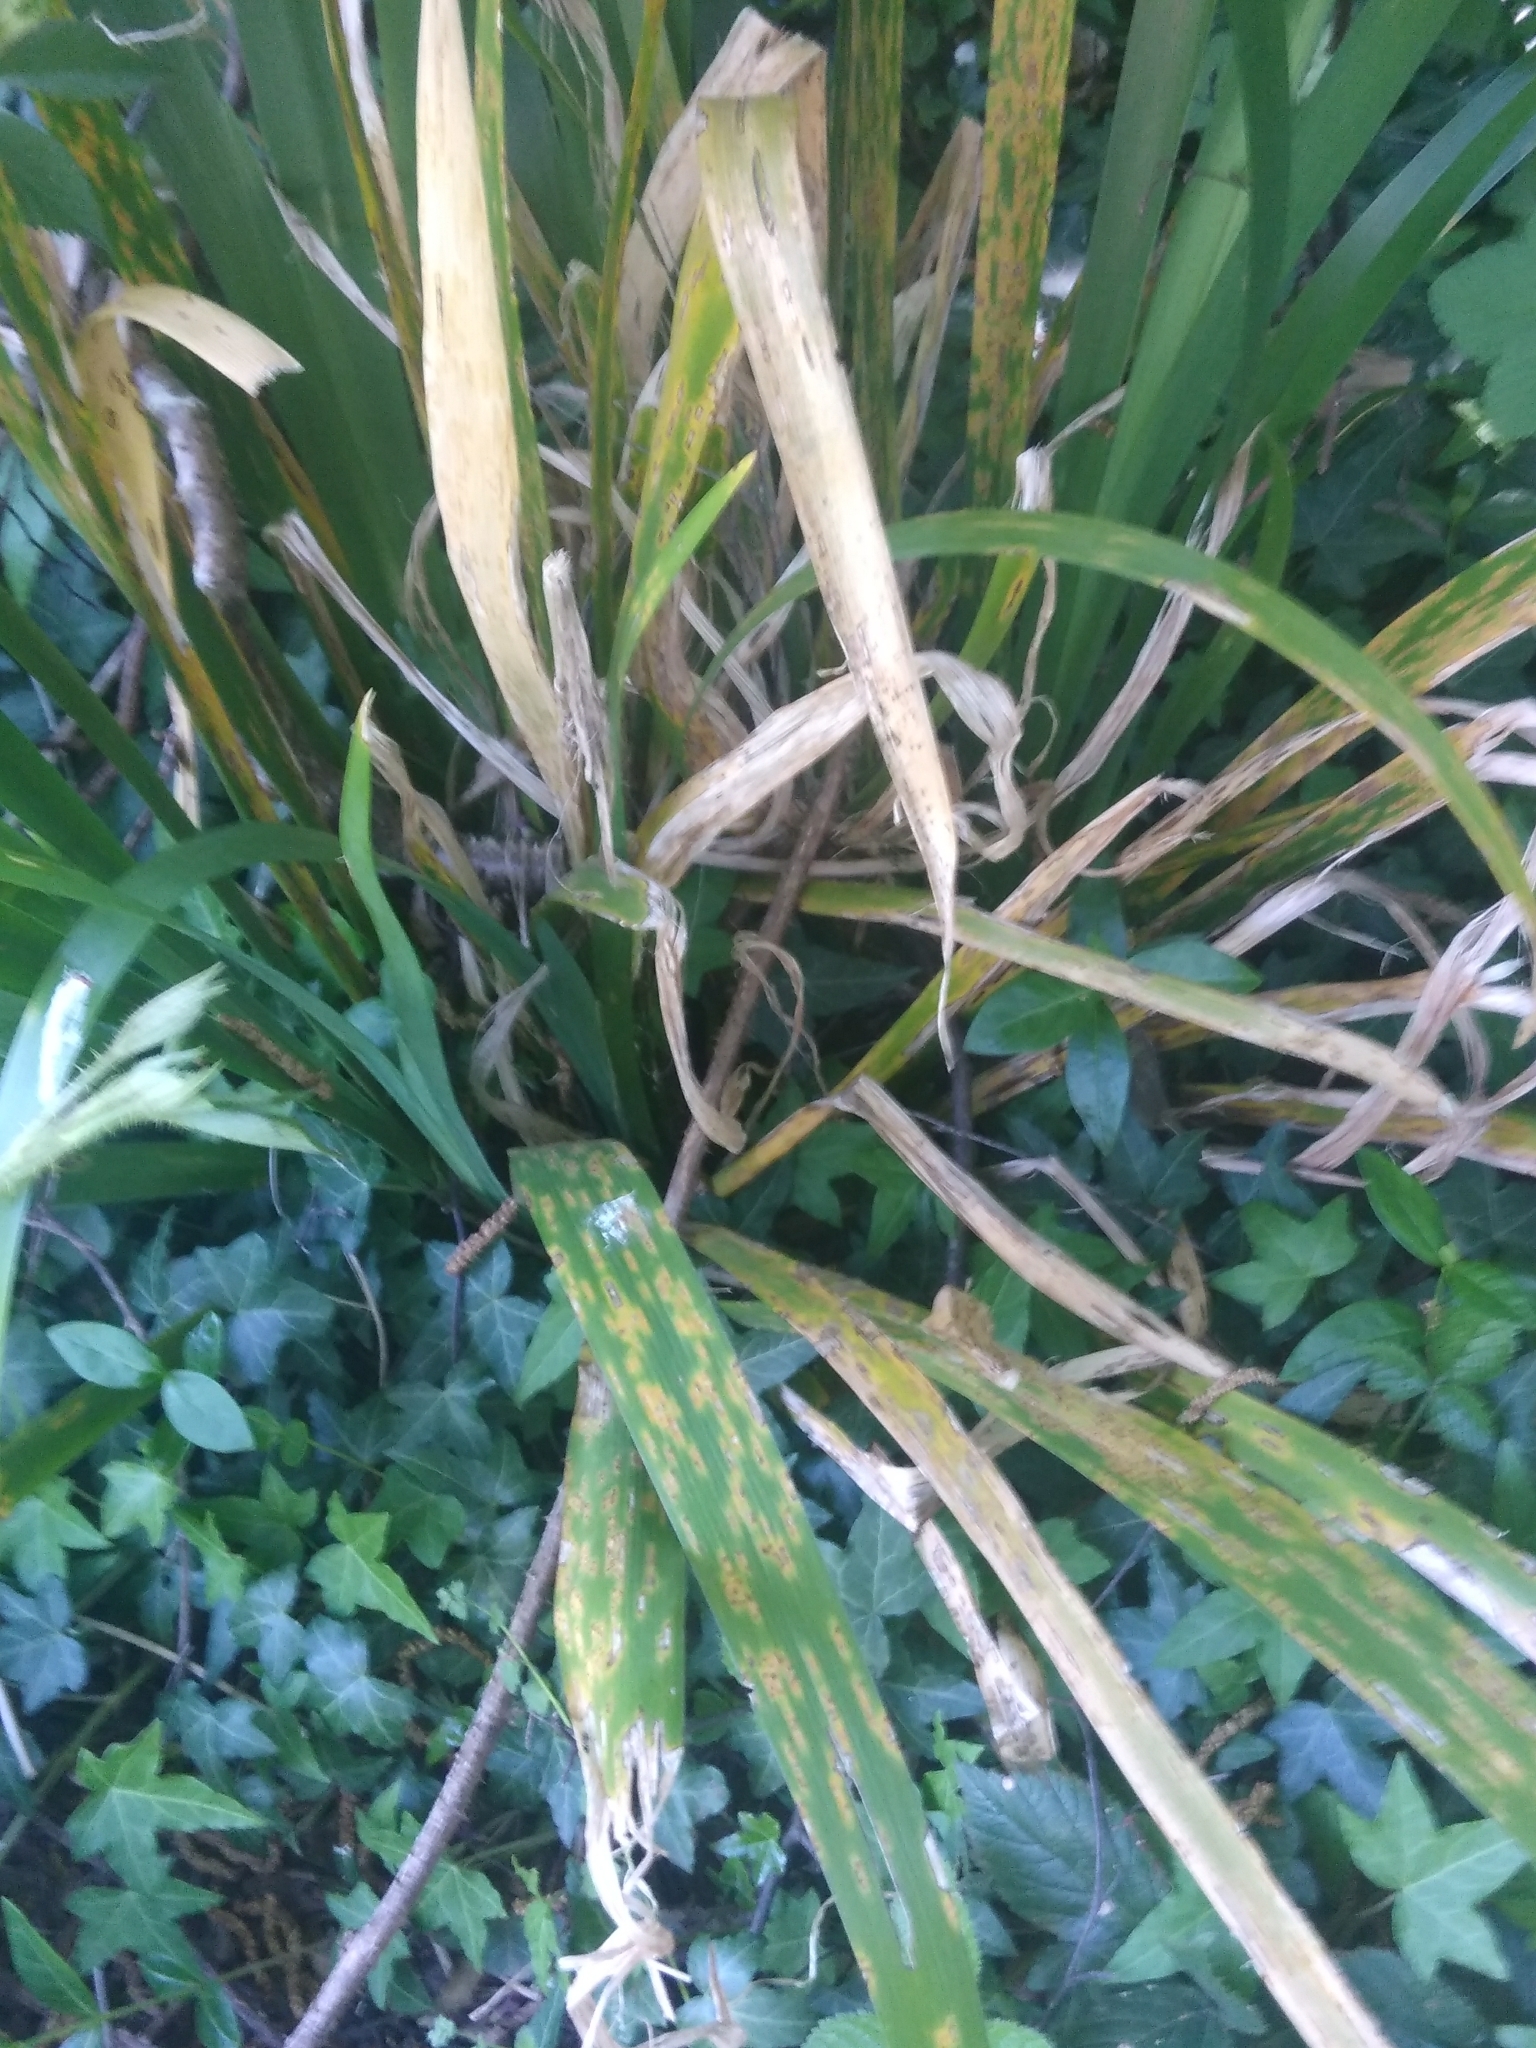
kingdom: Plantae
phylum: Tracheophyta
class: Liliopsida
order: Asparagales
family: Iridaceae
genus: Iris
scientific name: Iris foetidissima
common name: Stinking iris
